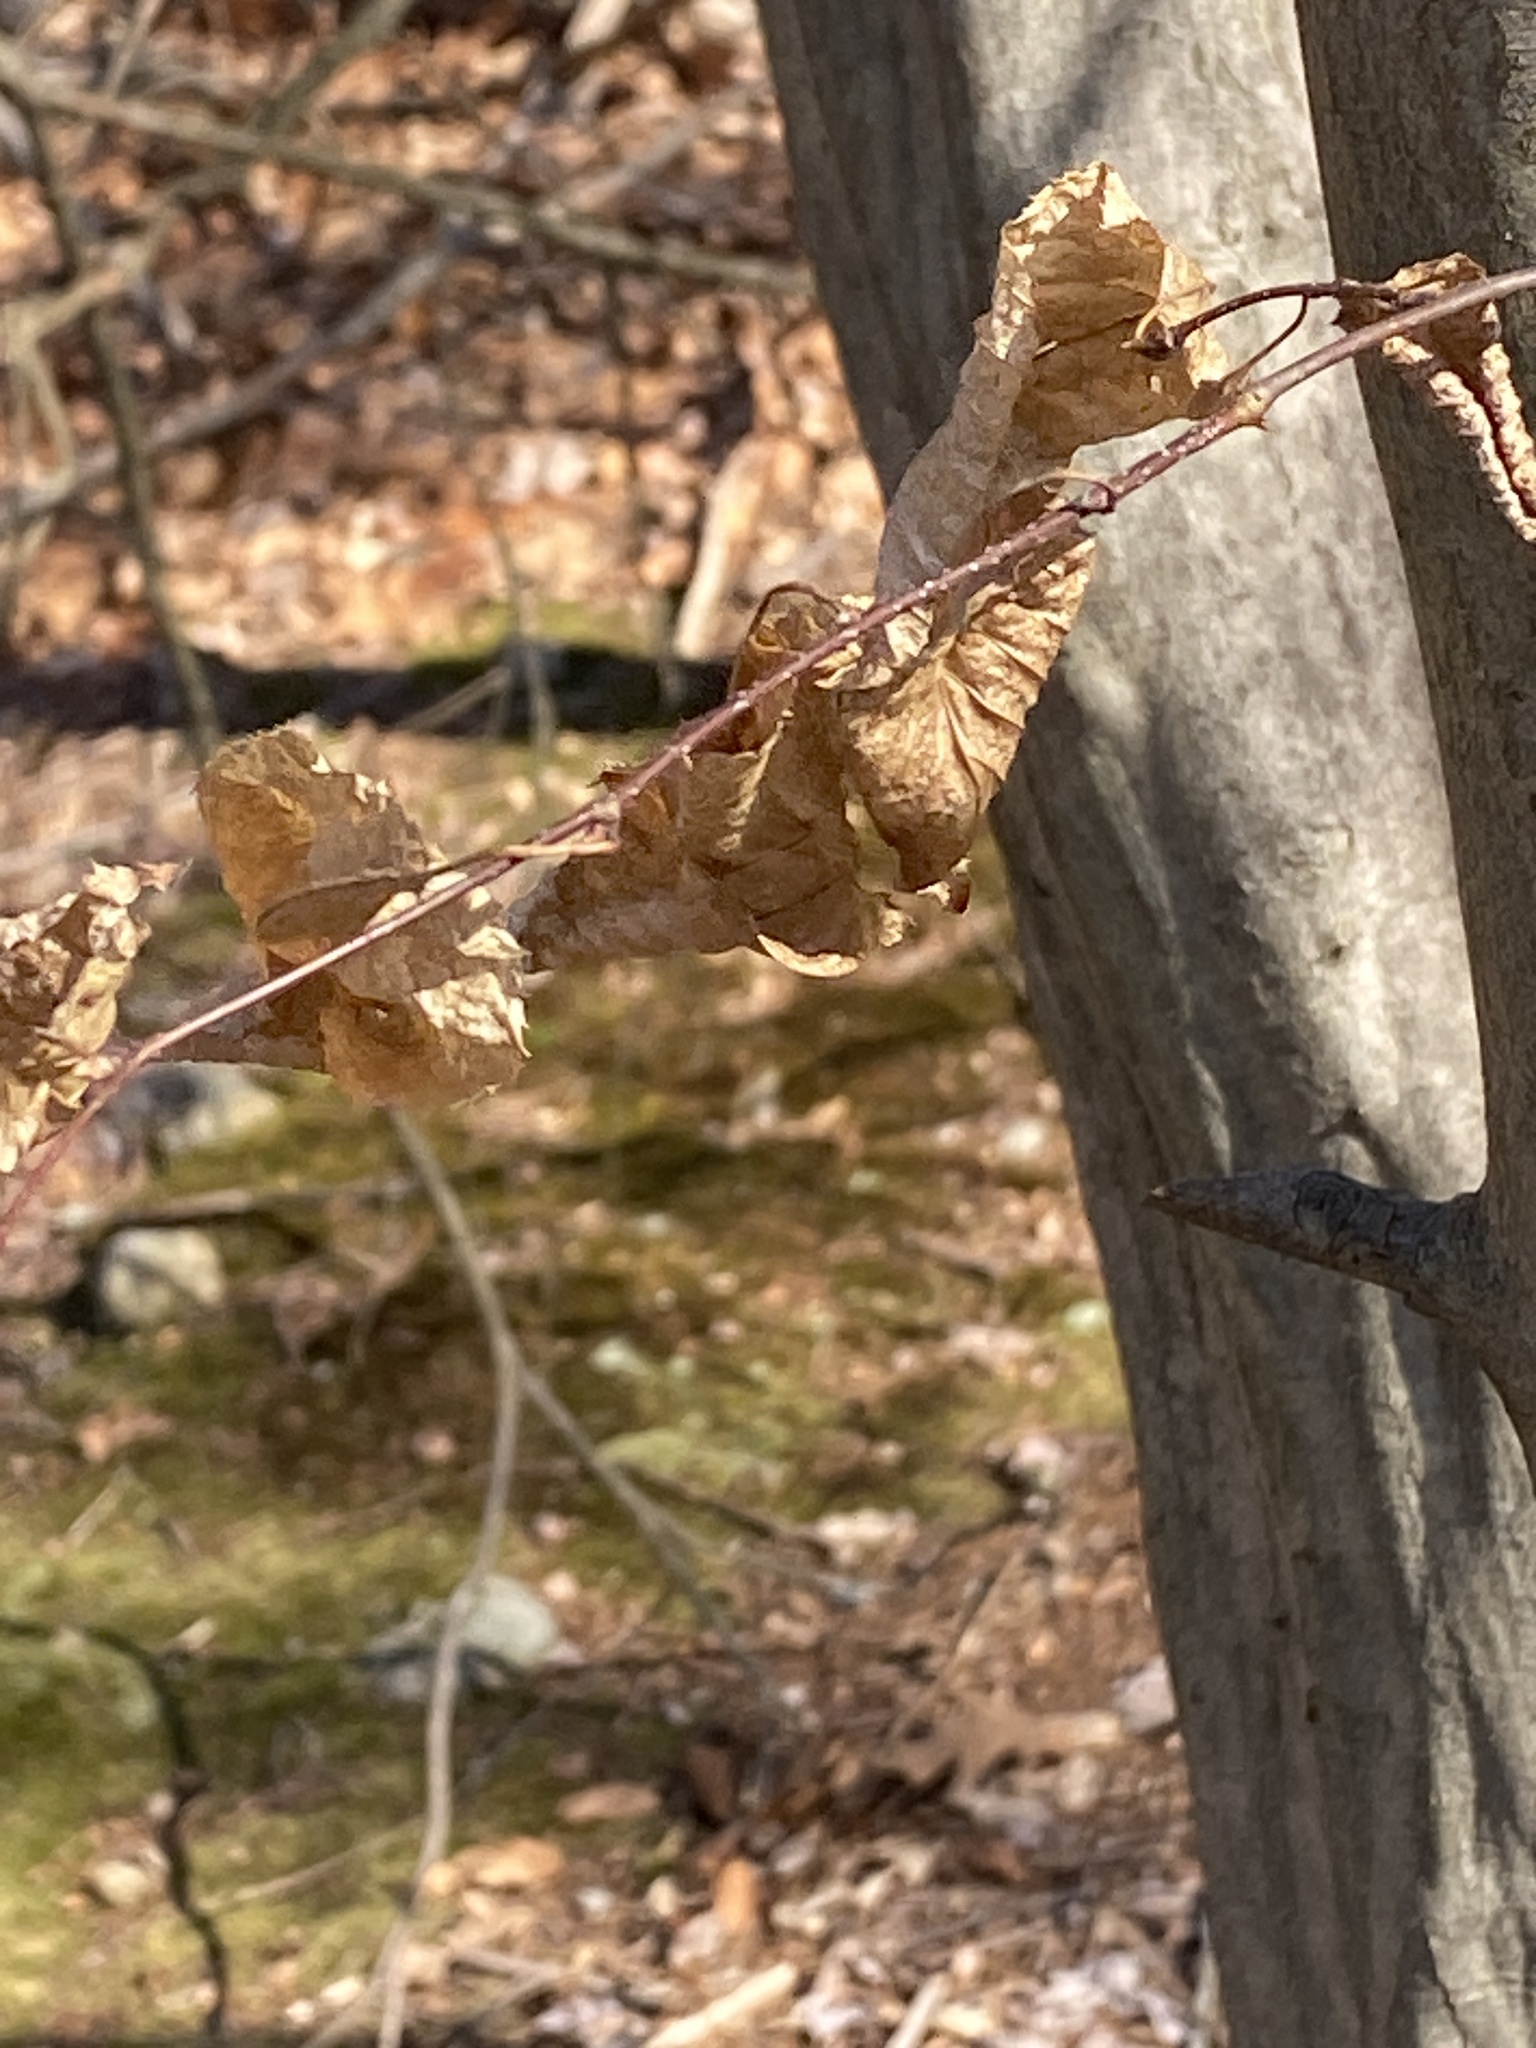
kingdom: Plantae
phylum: Tracheophyta
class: Magnoliopsida
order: Fagales
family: Betulaceae
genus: Carpinus
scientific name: Carpinus caroliniana
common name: American hornbeam
